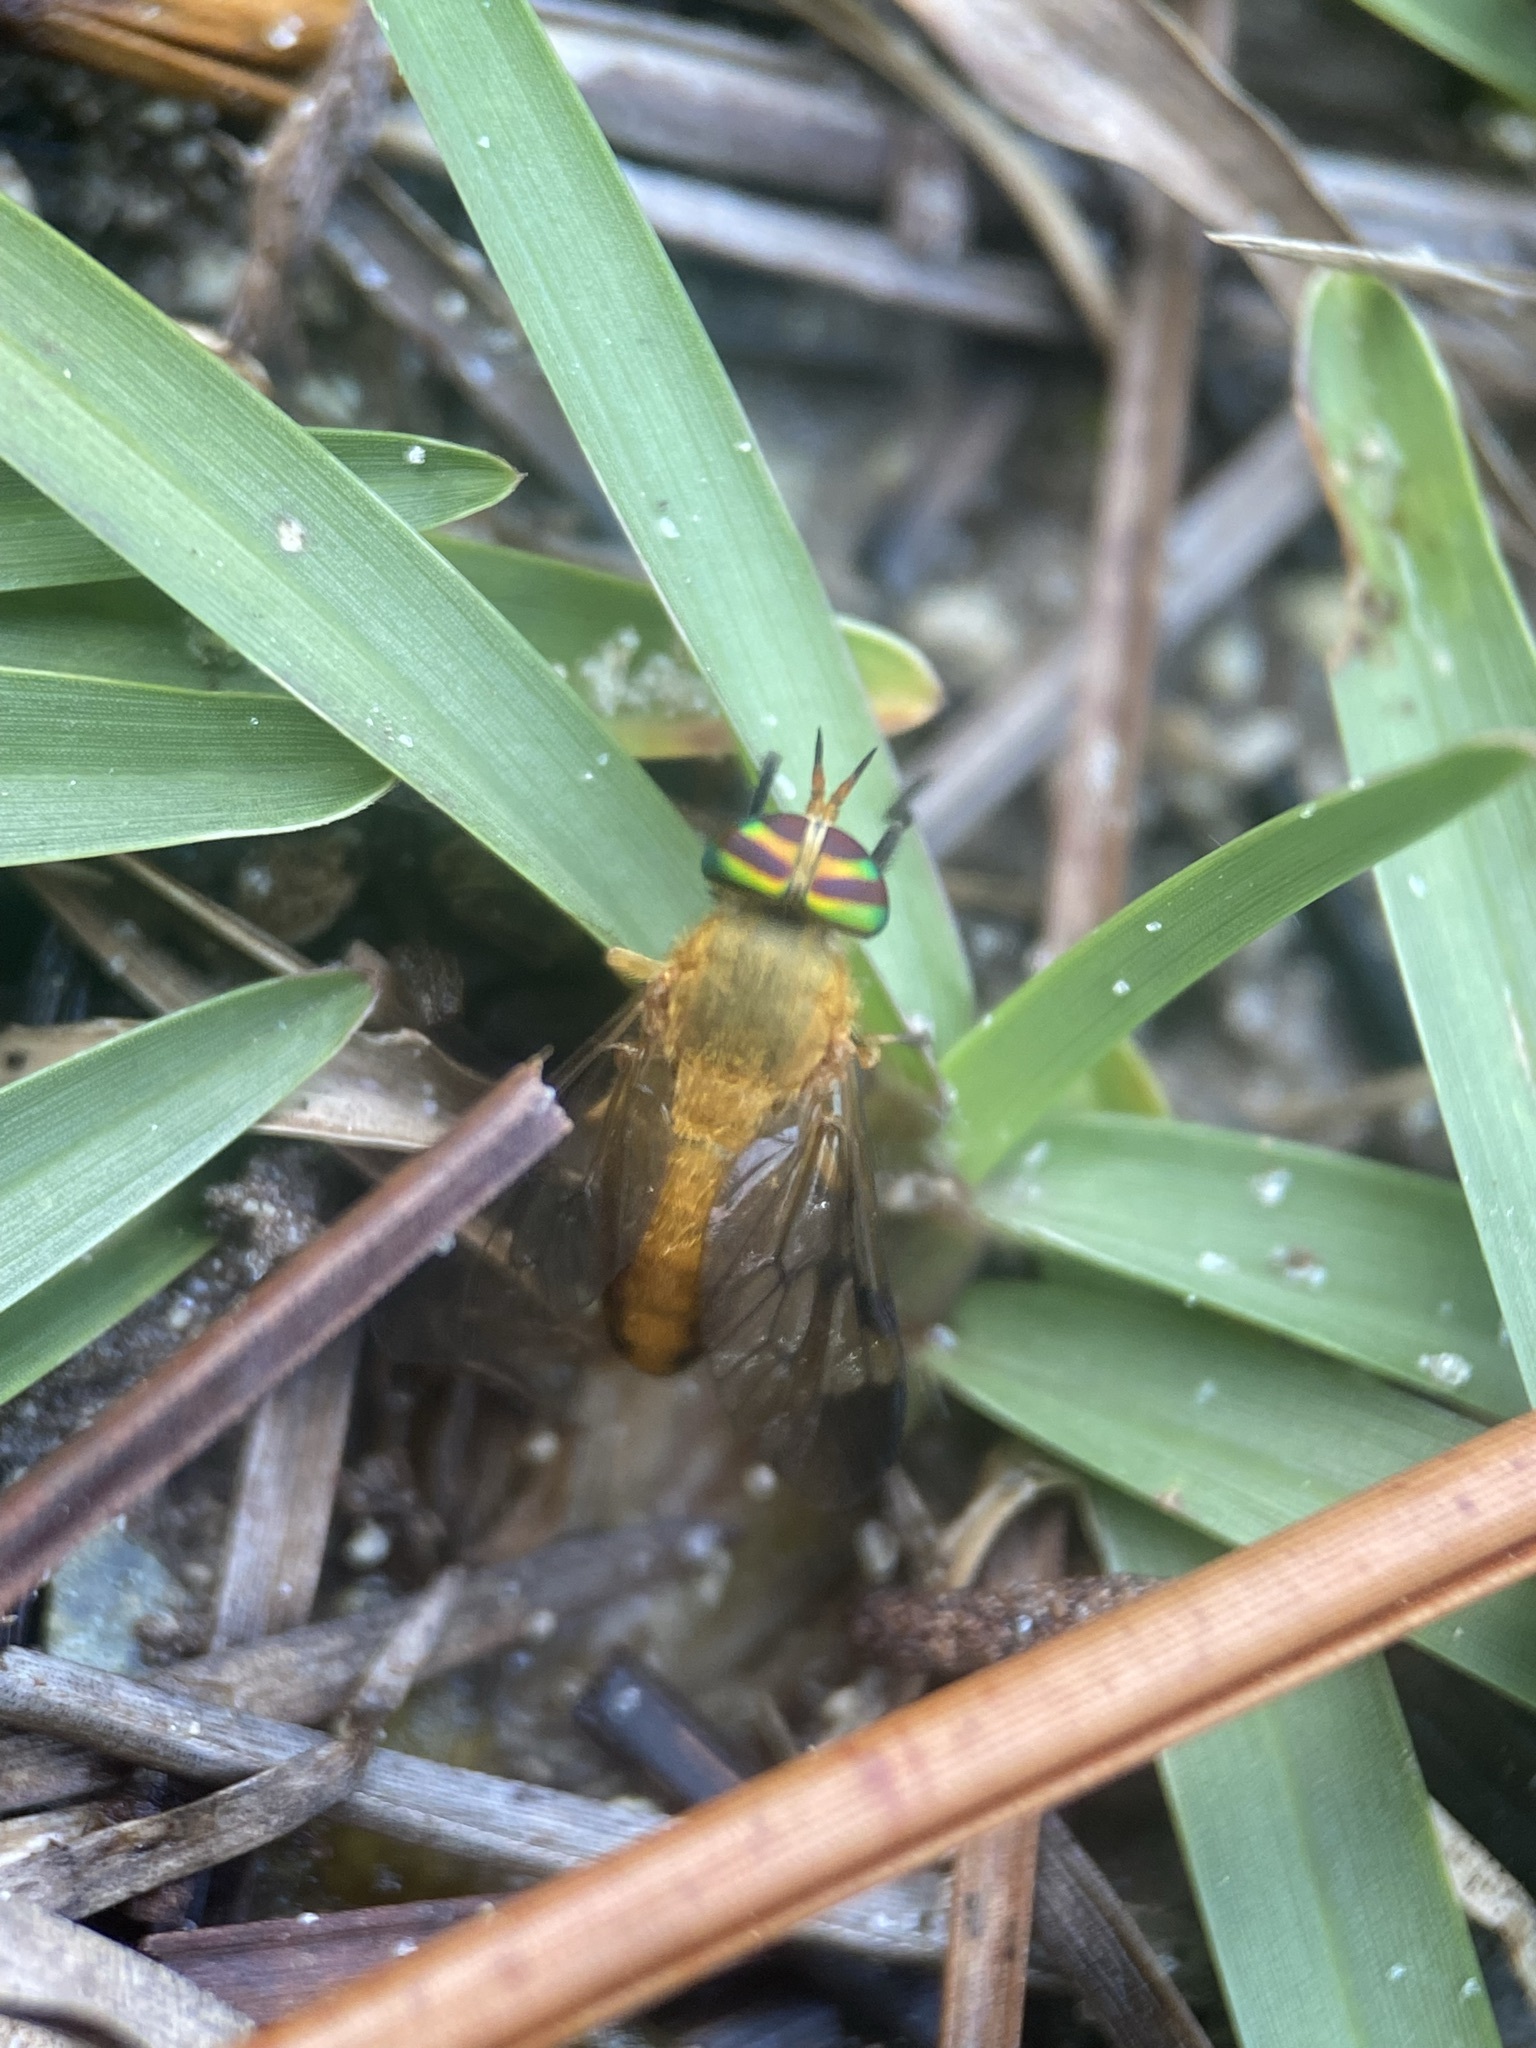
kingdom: Animalia
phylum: Arthropoda
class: Insecta
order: Diptera
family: Tabanidae
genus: Diachlorus
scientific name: Diachlorus ferrugatus
